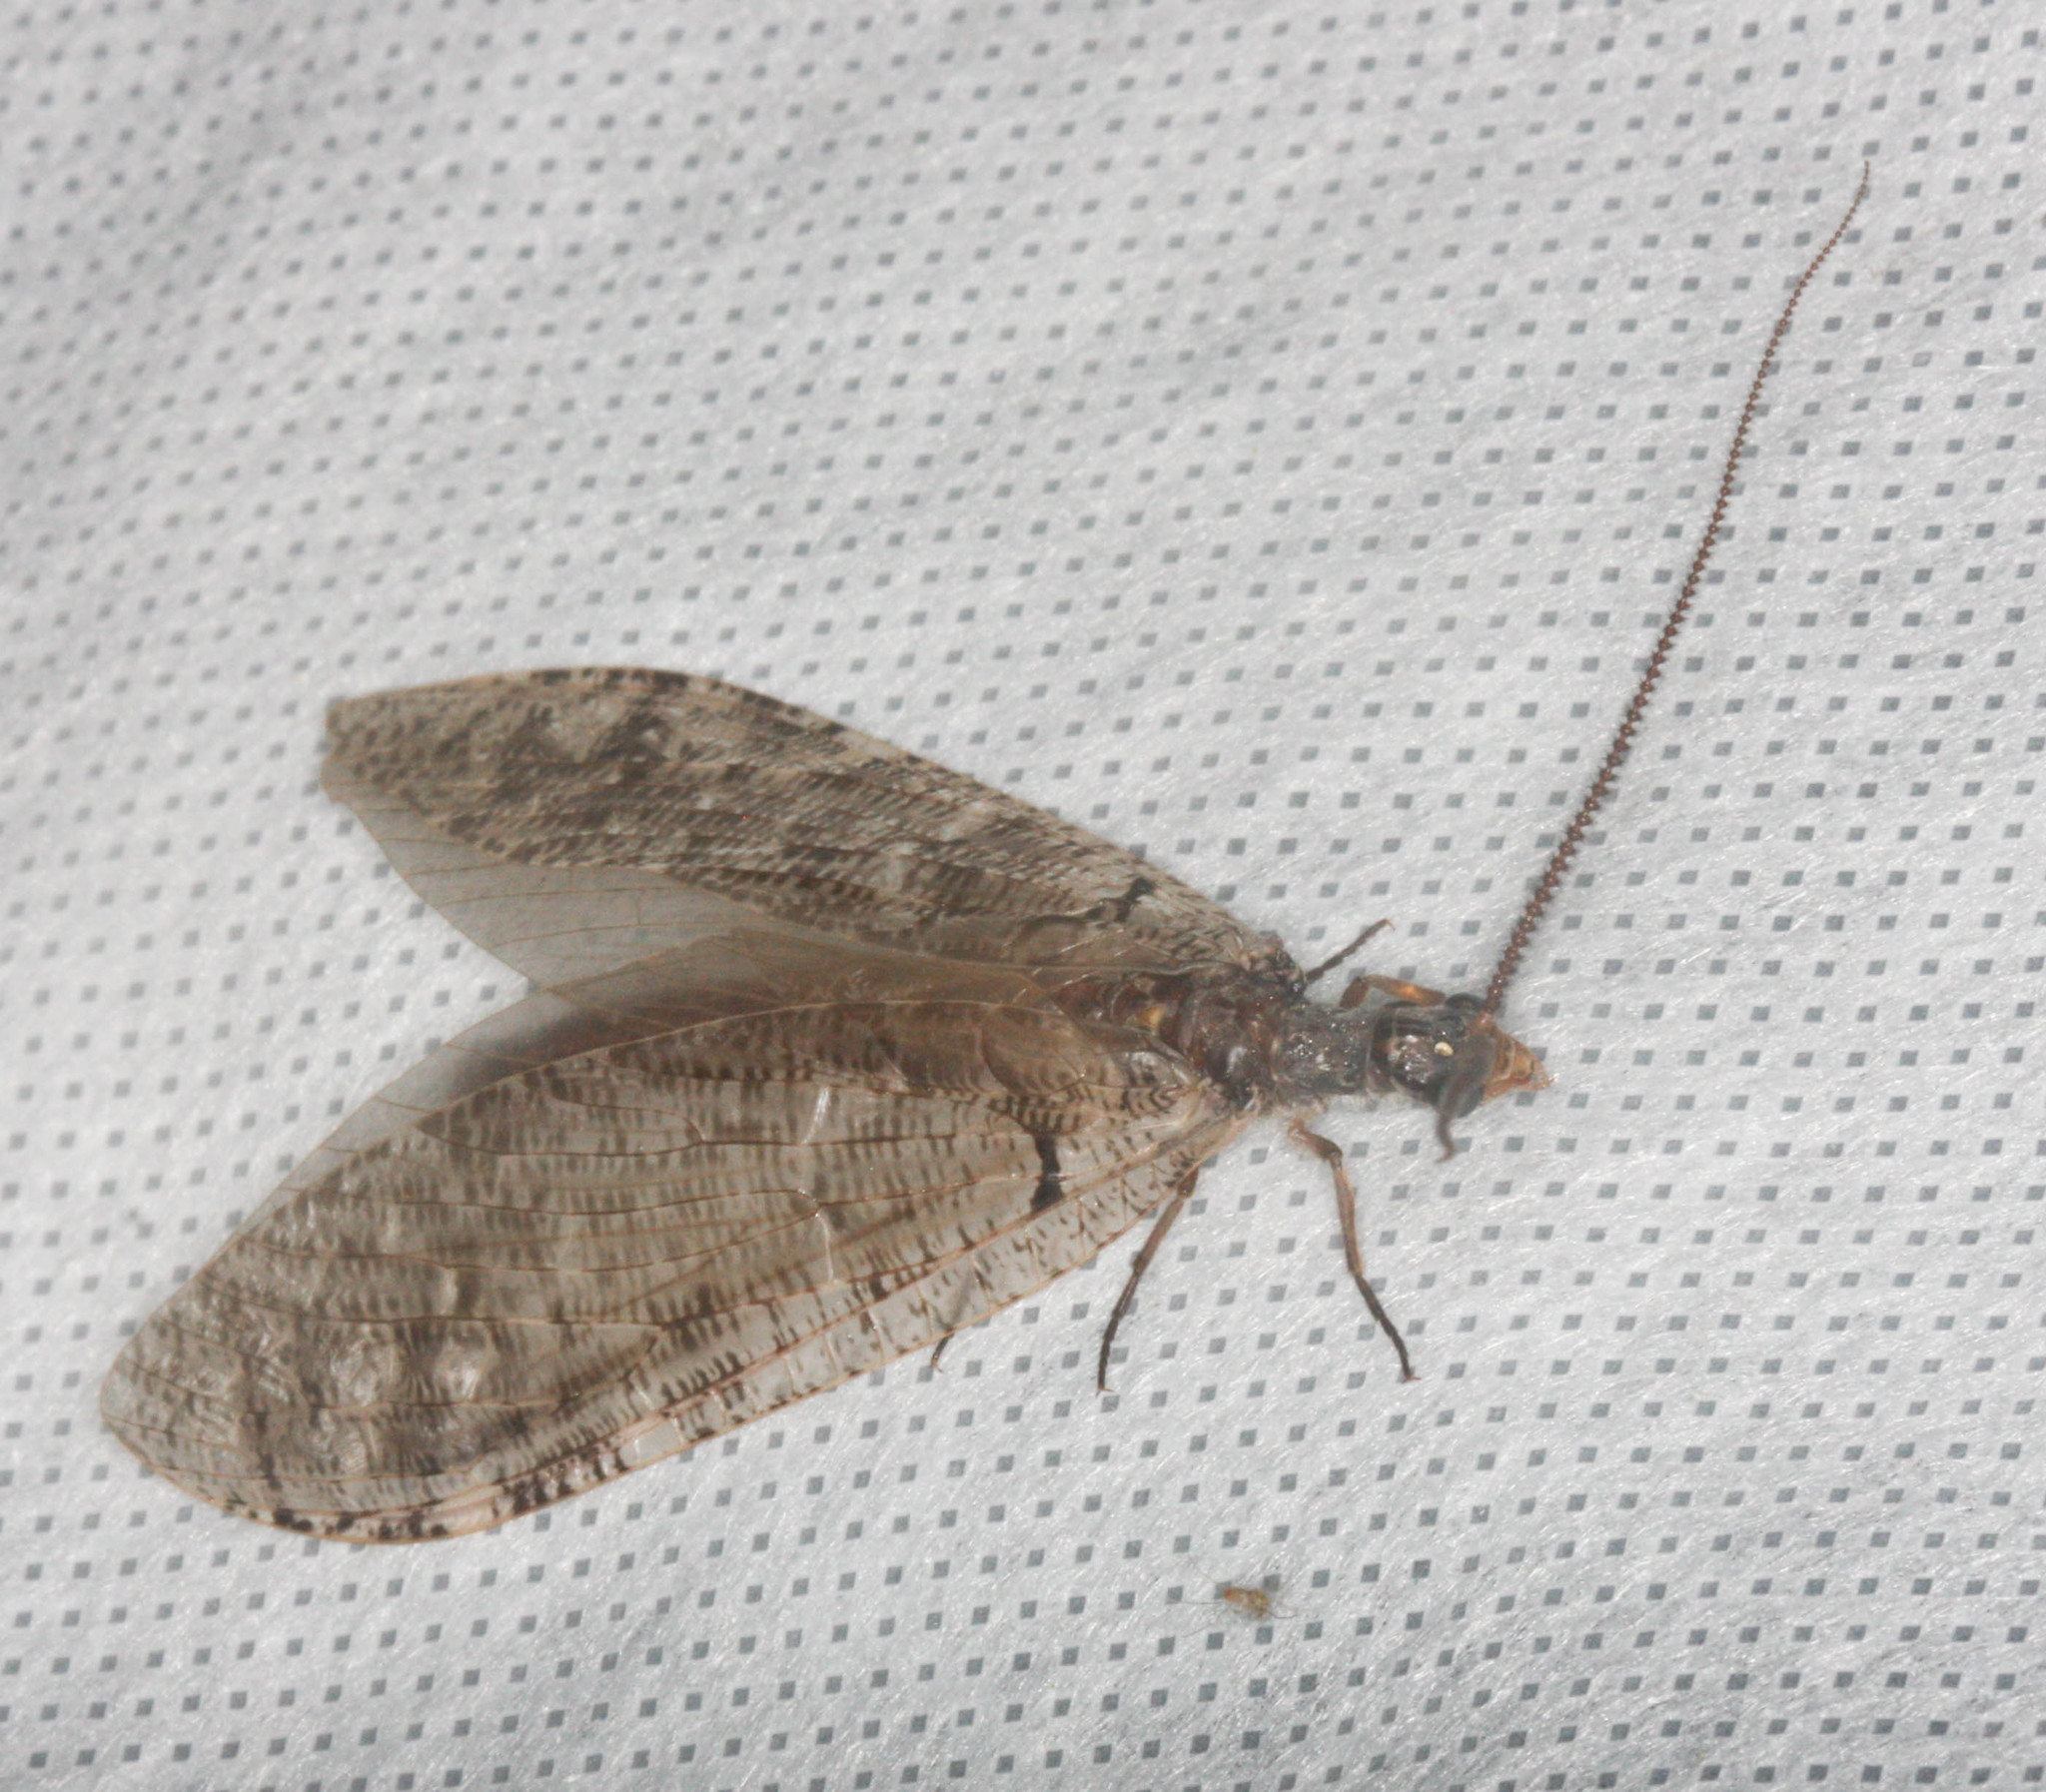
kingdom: Animalia
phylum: Arthropoda
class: Insecta
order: Megaloptera
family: Corydalidae
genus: Neohermes
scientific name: Neohermes filicornis
